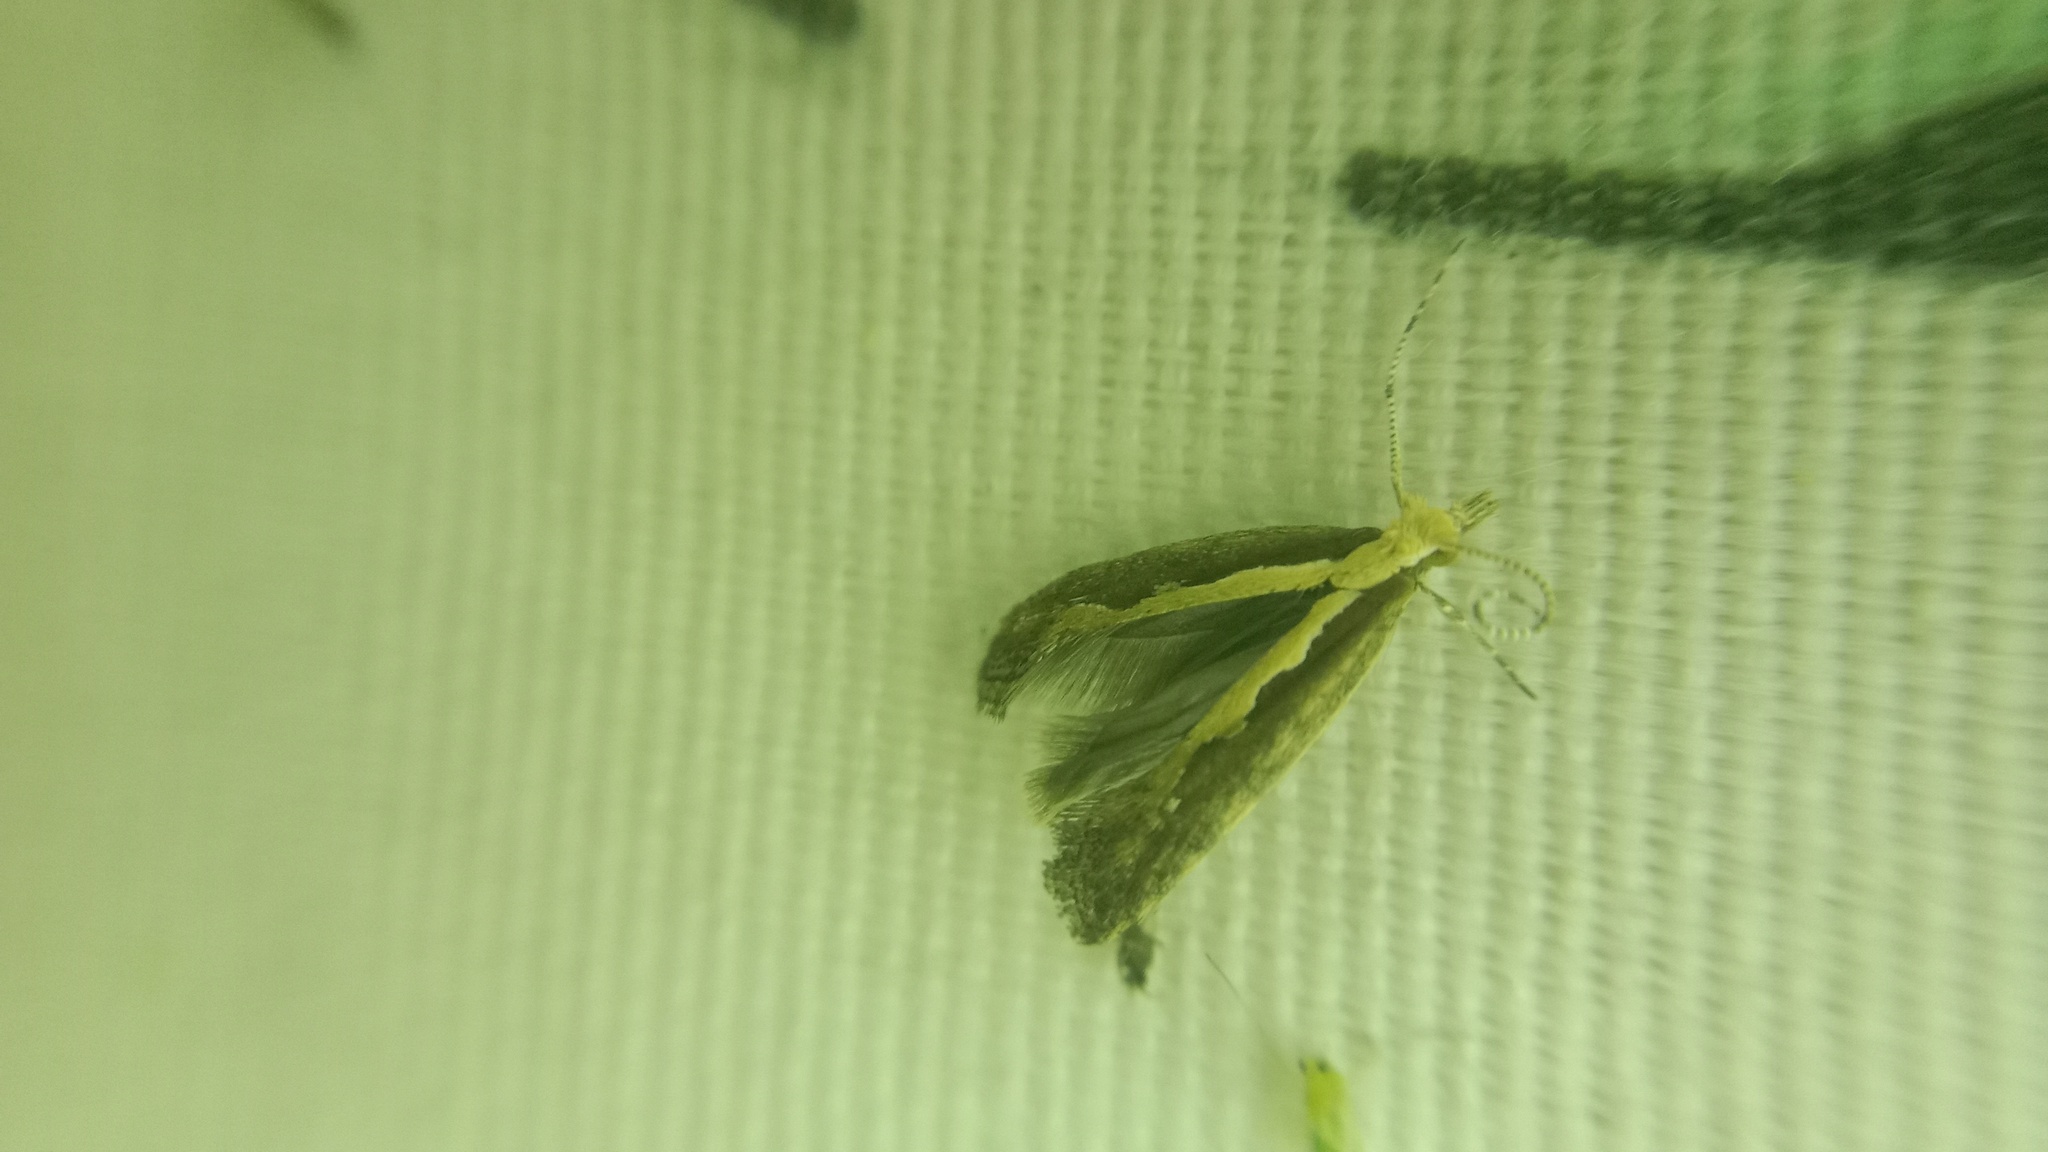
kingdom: Animalia
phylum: Arthropoda
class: Insecta
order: Lepidoptera
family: Plutellidae
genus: Plutella
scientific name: Plutella xylostella
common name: Diamond-back moth
